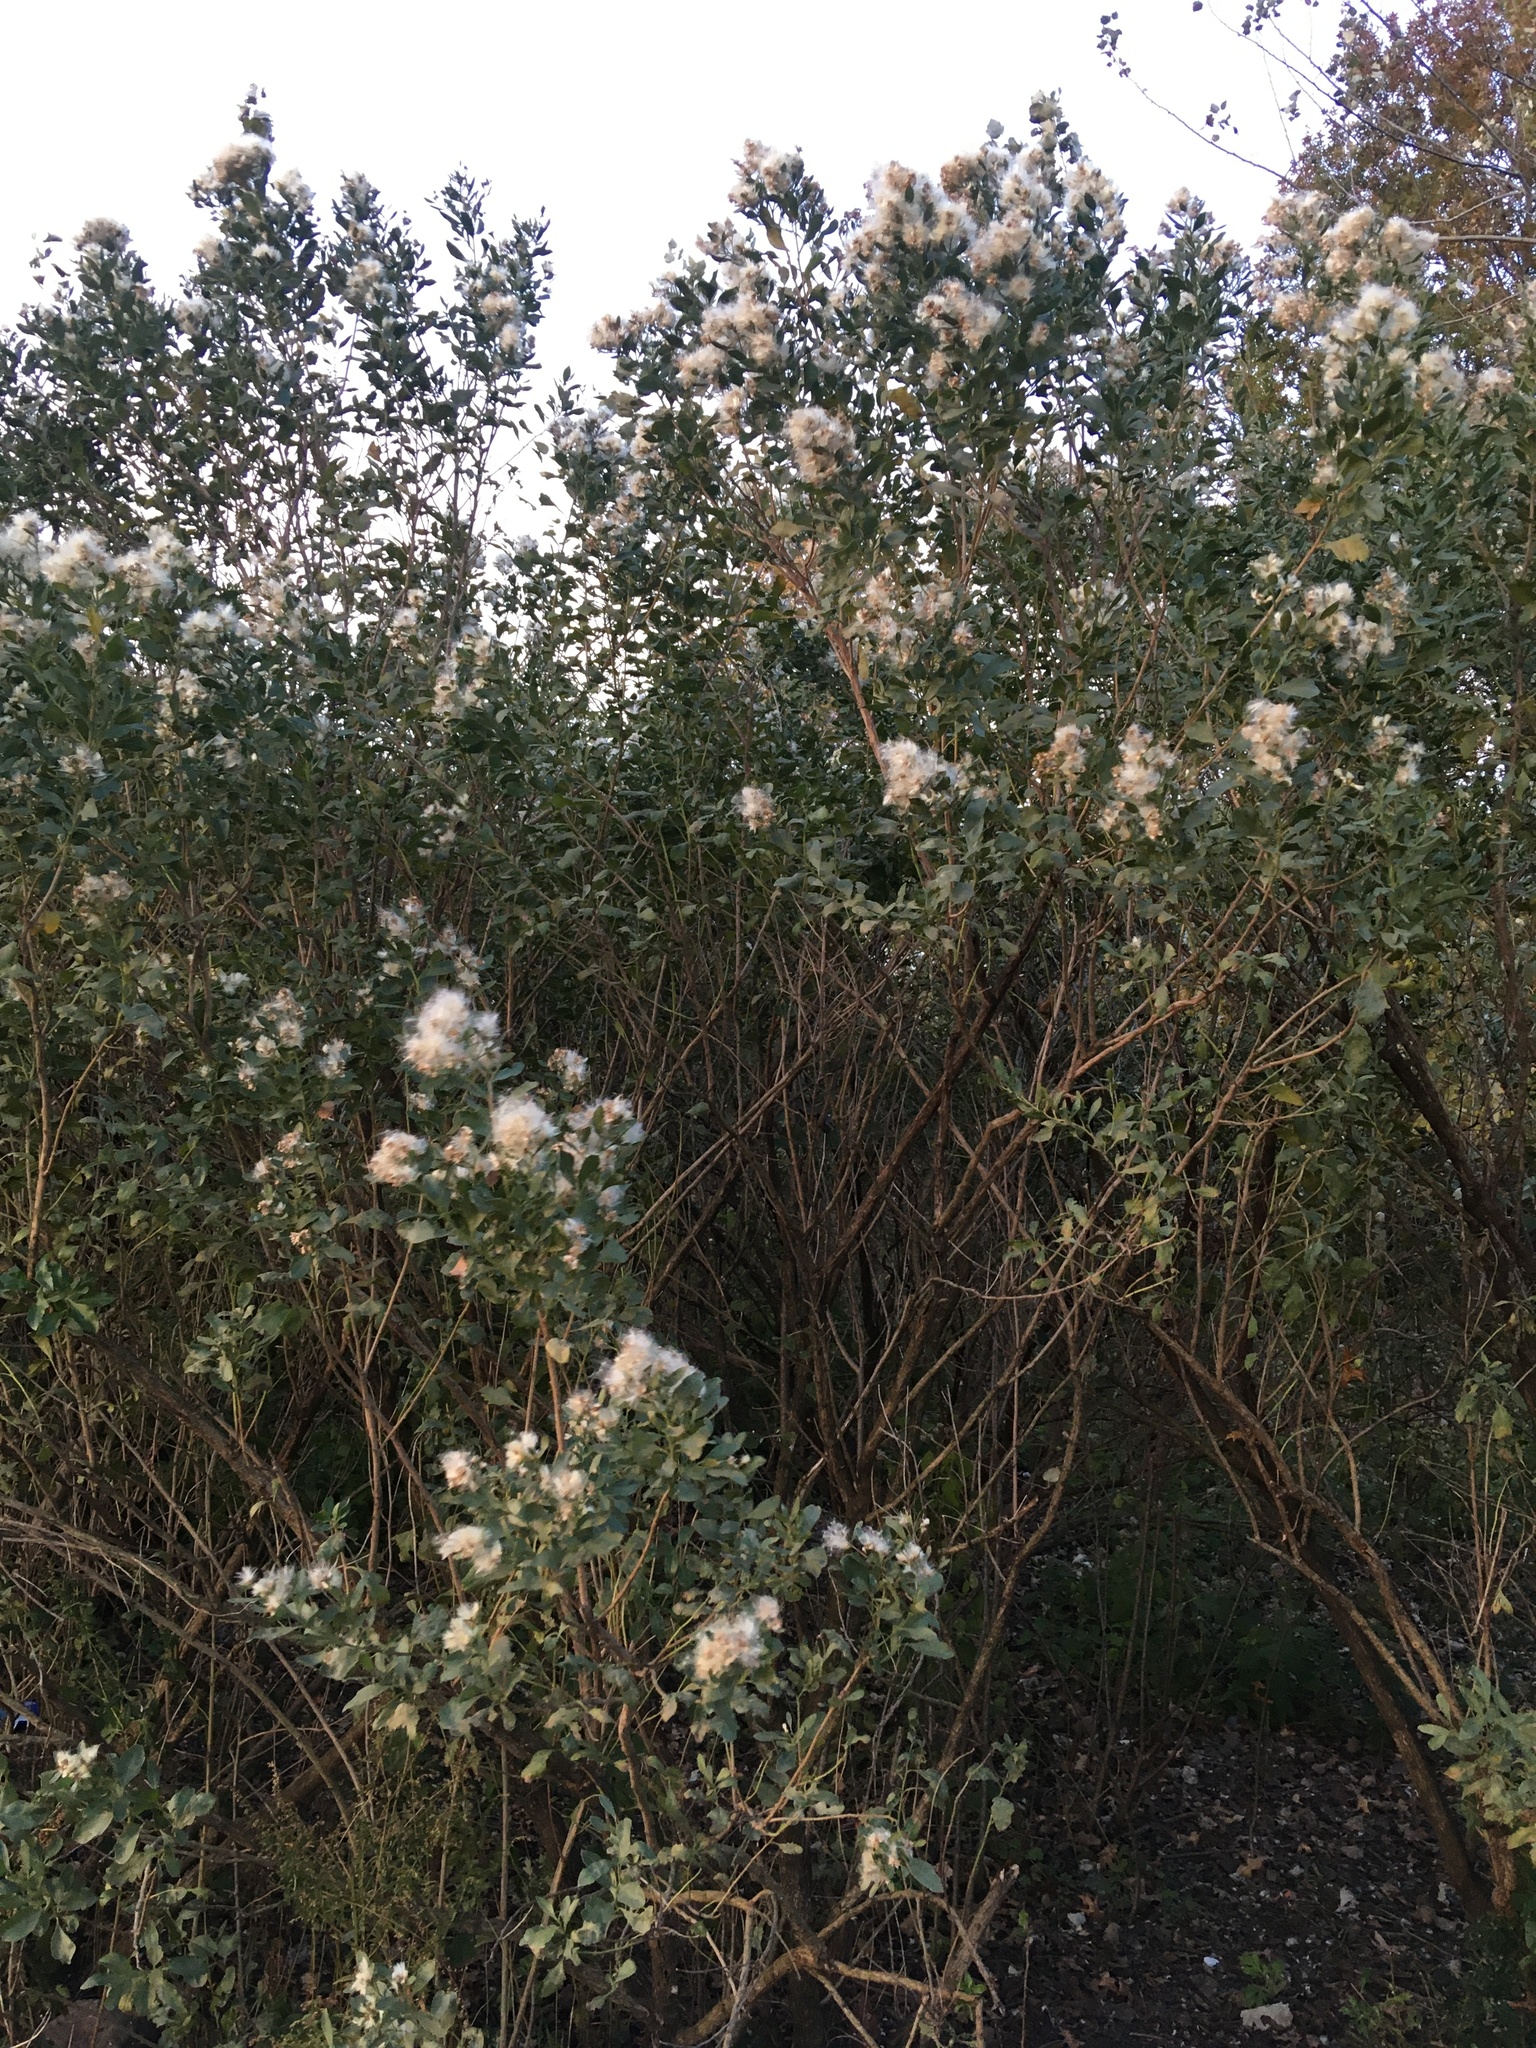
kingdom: Plantae
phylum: Tracheophyta
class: Magnoliopsida
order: Asterales
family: Asteraceae
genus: Baccharis
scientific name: Baccharis halimifolia
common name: Eastern baccharis
